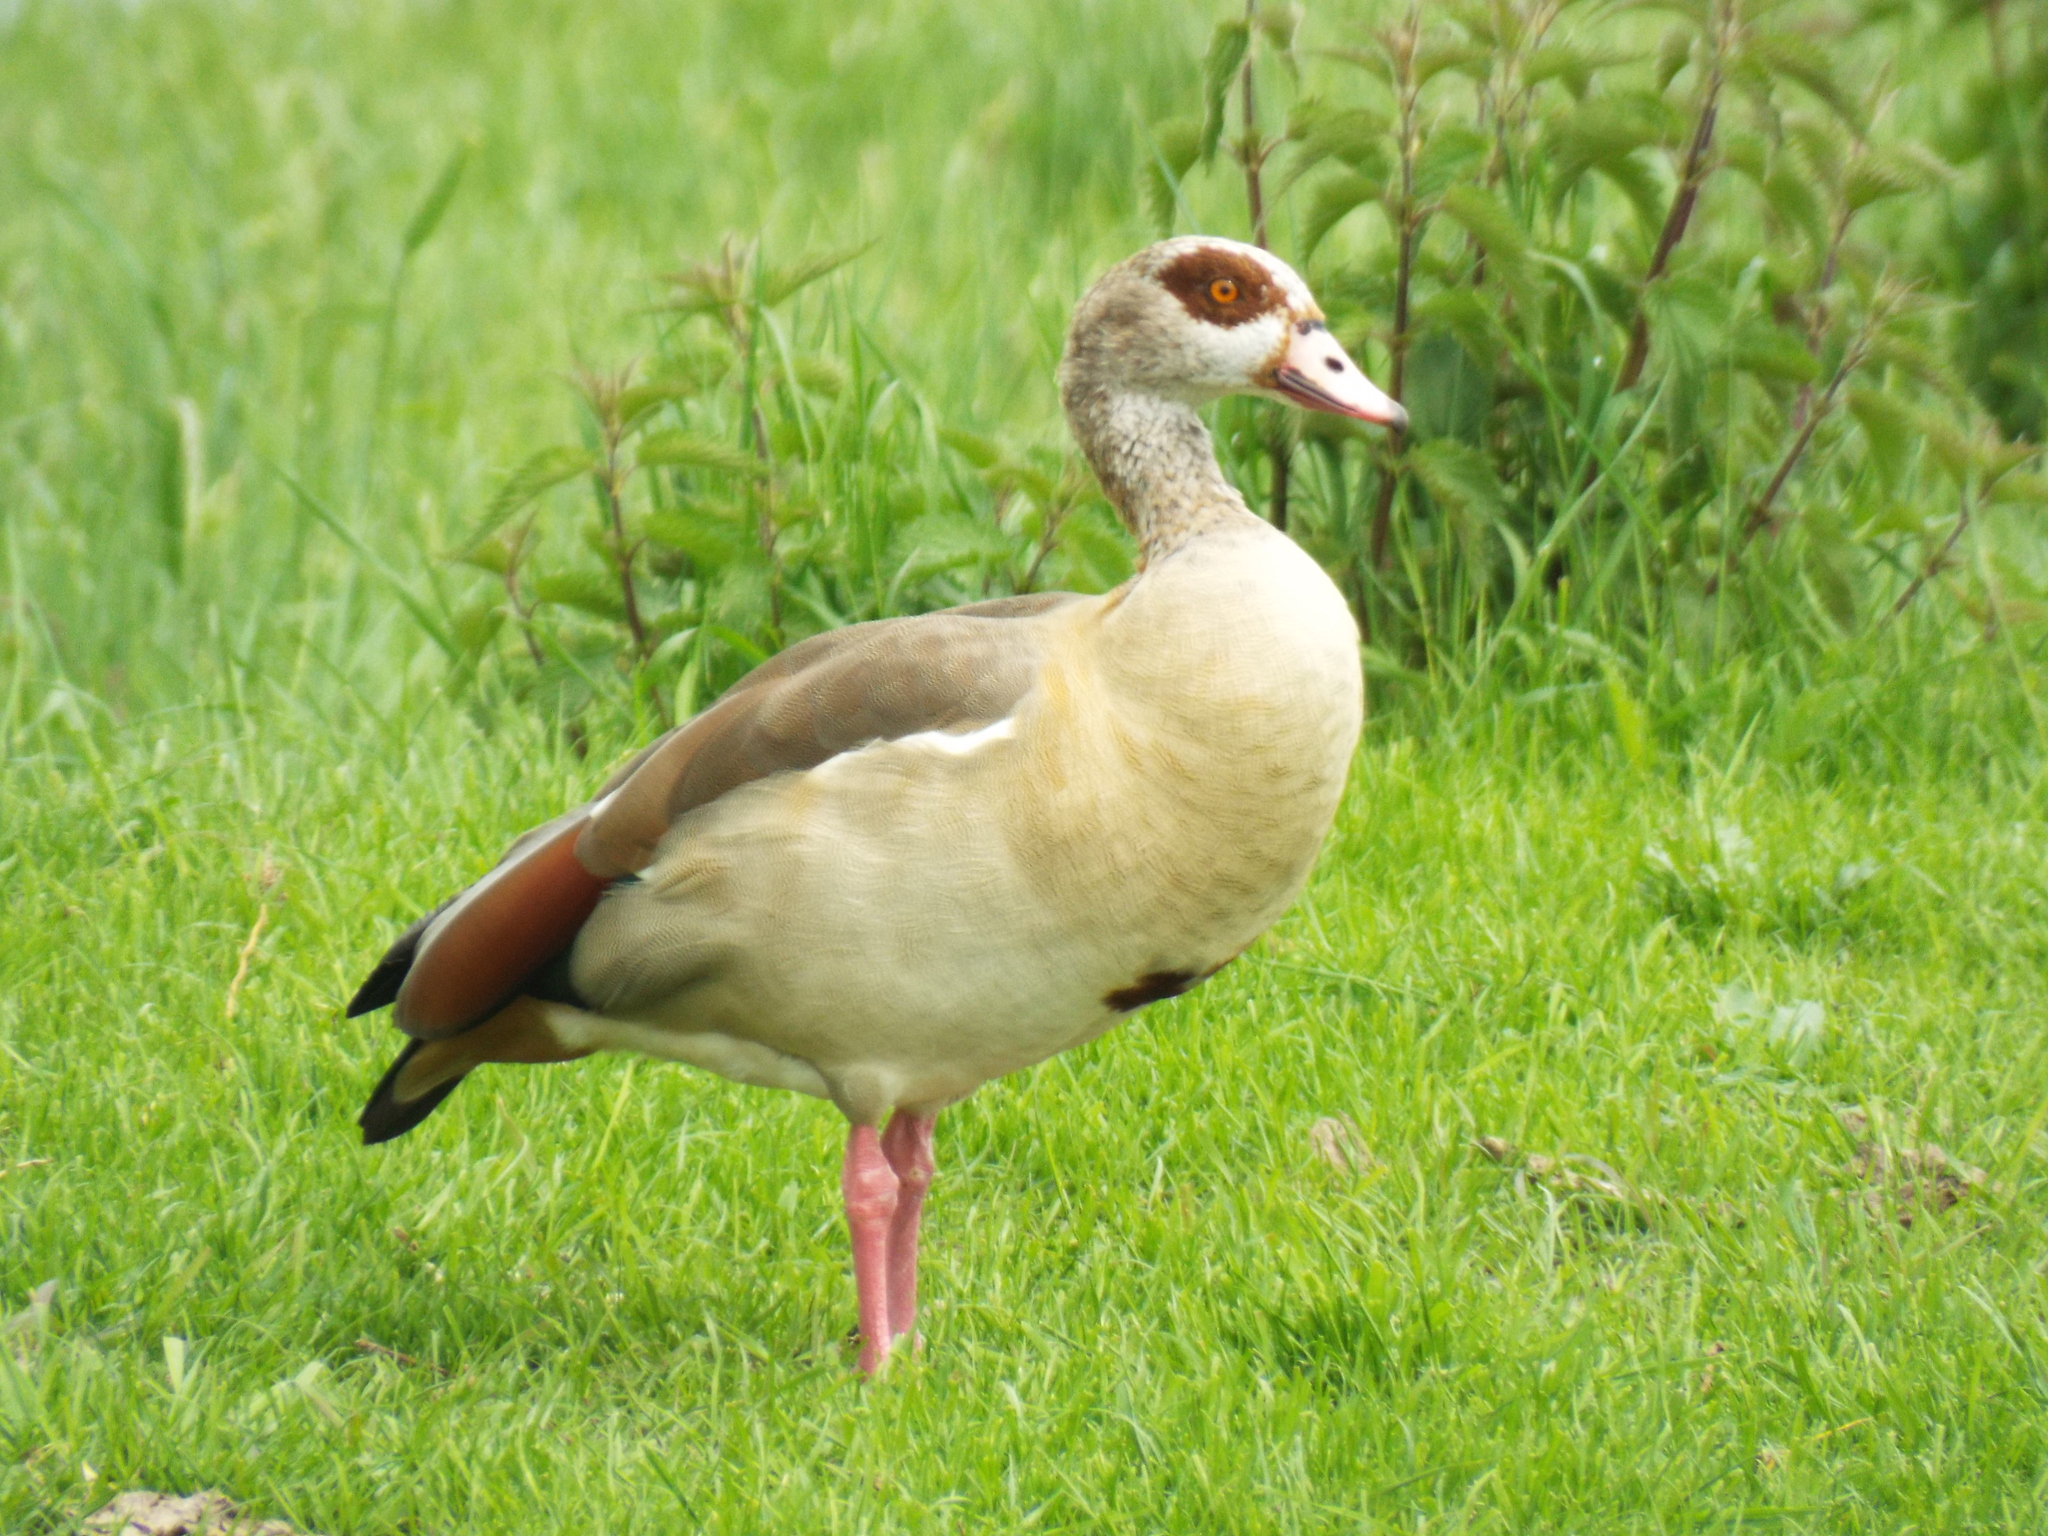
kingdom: Animalia
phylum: Chordata
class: Aves
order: Anseriformes
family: Anatidae
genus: Alopochen
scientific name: Alopochen aegyptiaca
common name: Egyptian goose
